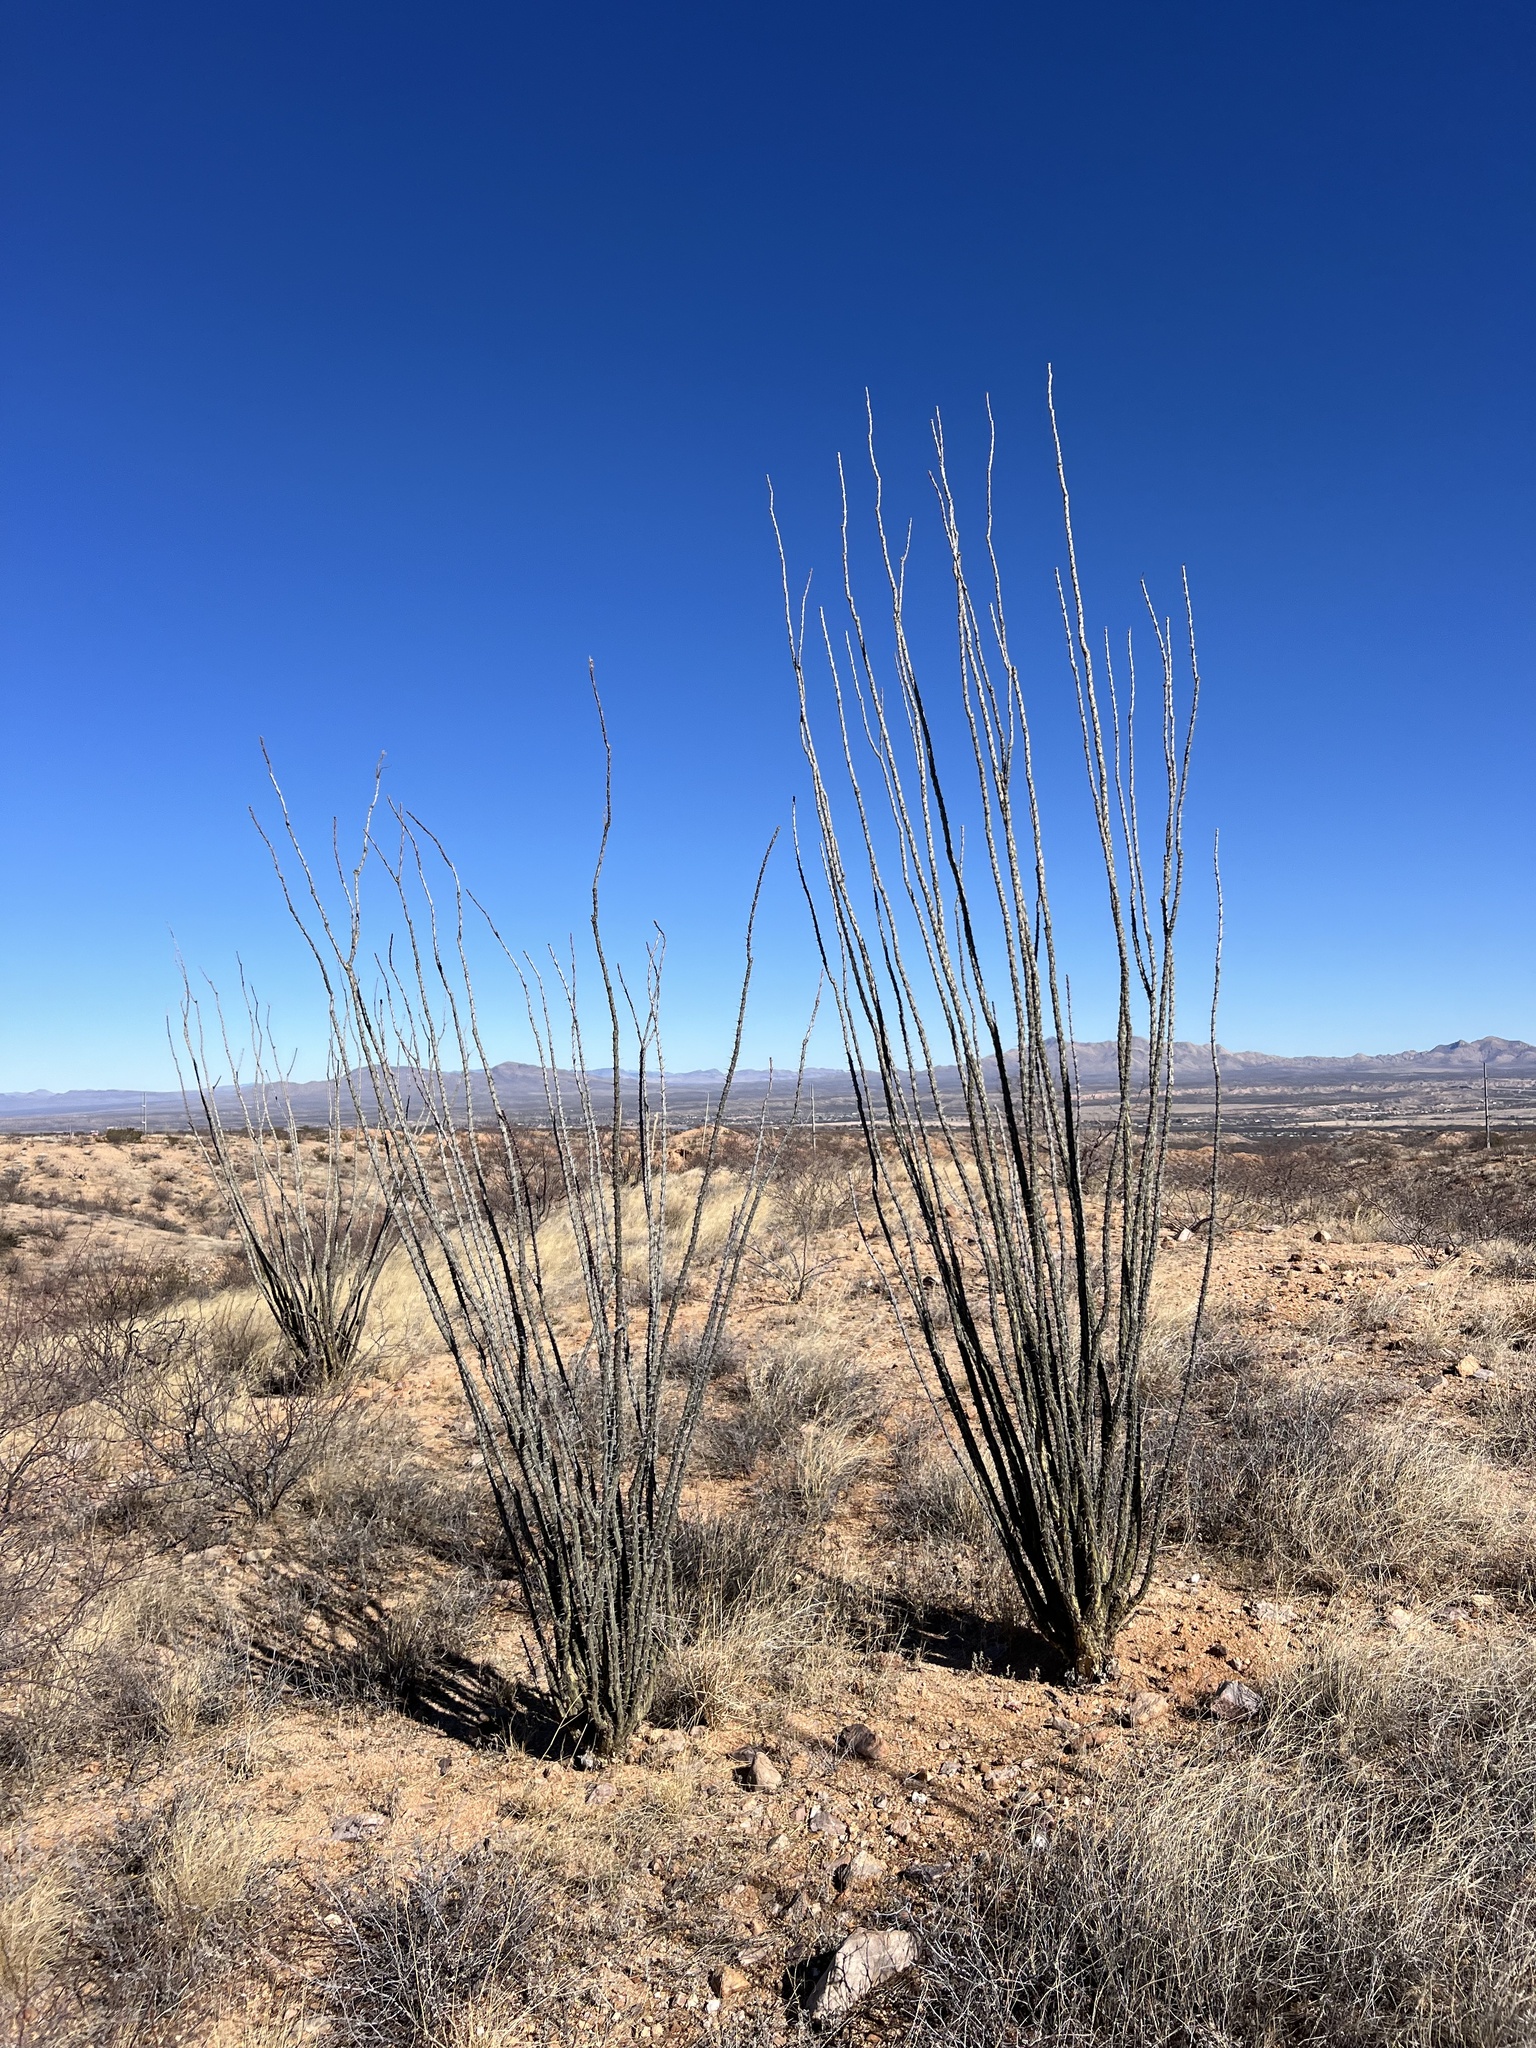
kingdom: Plantae
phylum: Tracheophyta
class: Magnoliopsida
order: Ericales
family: Fouquieriaceae
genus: Fouquieria
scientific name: Fouquieria splendens
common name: Vine-cactus
